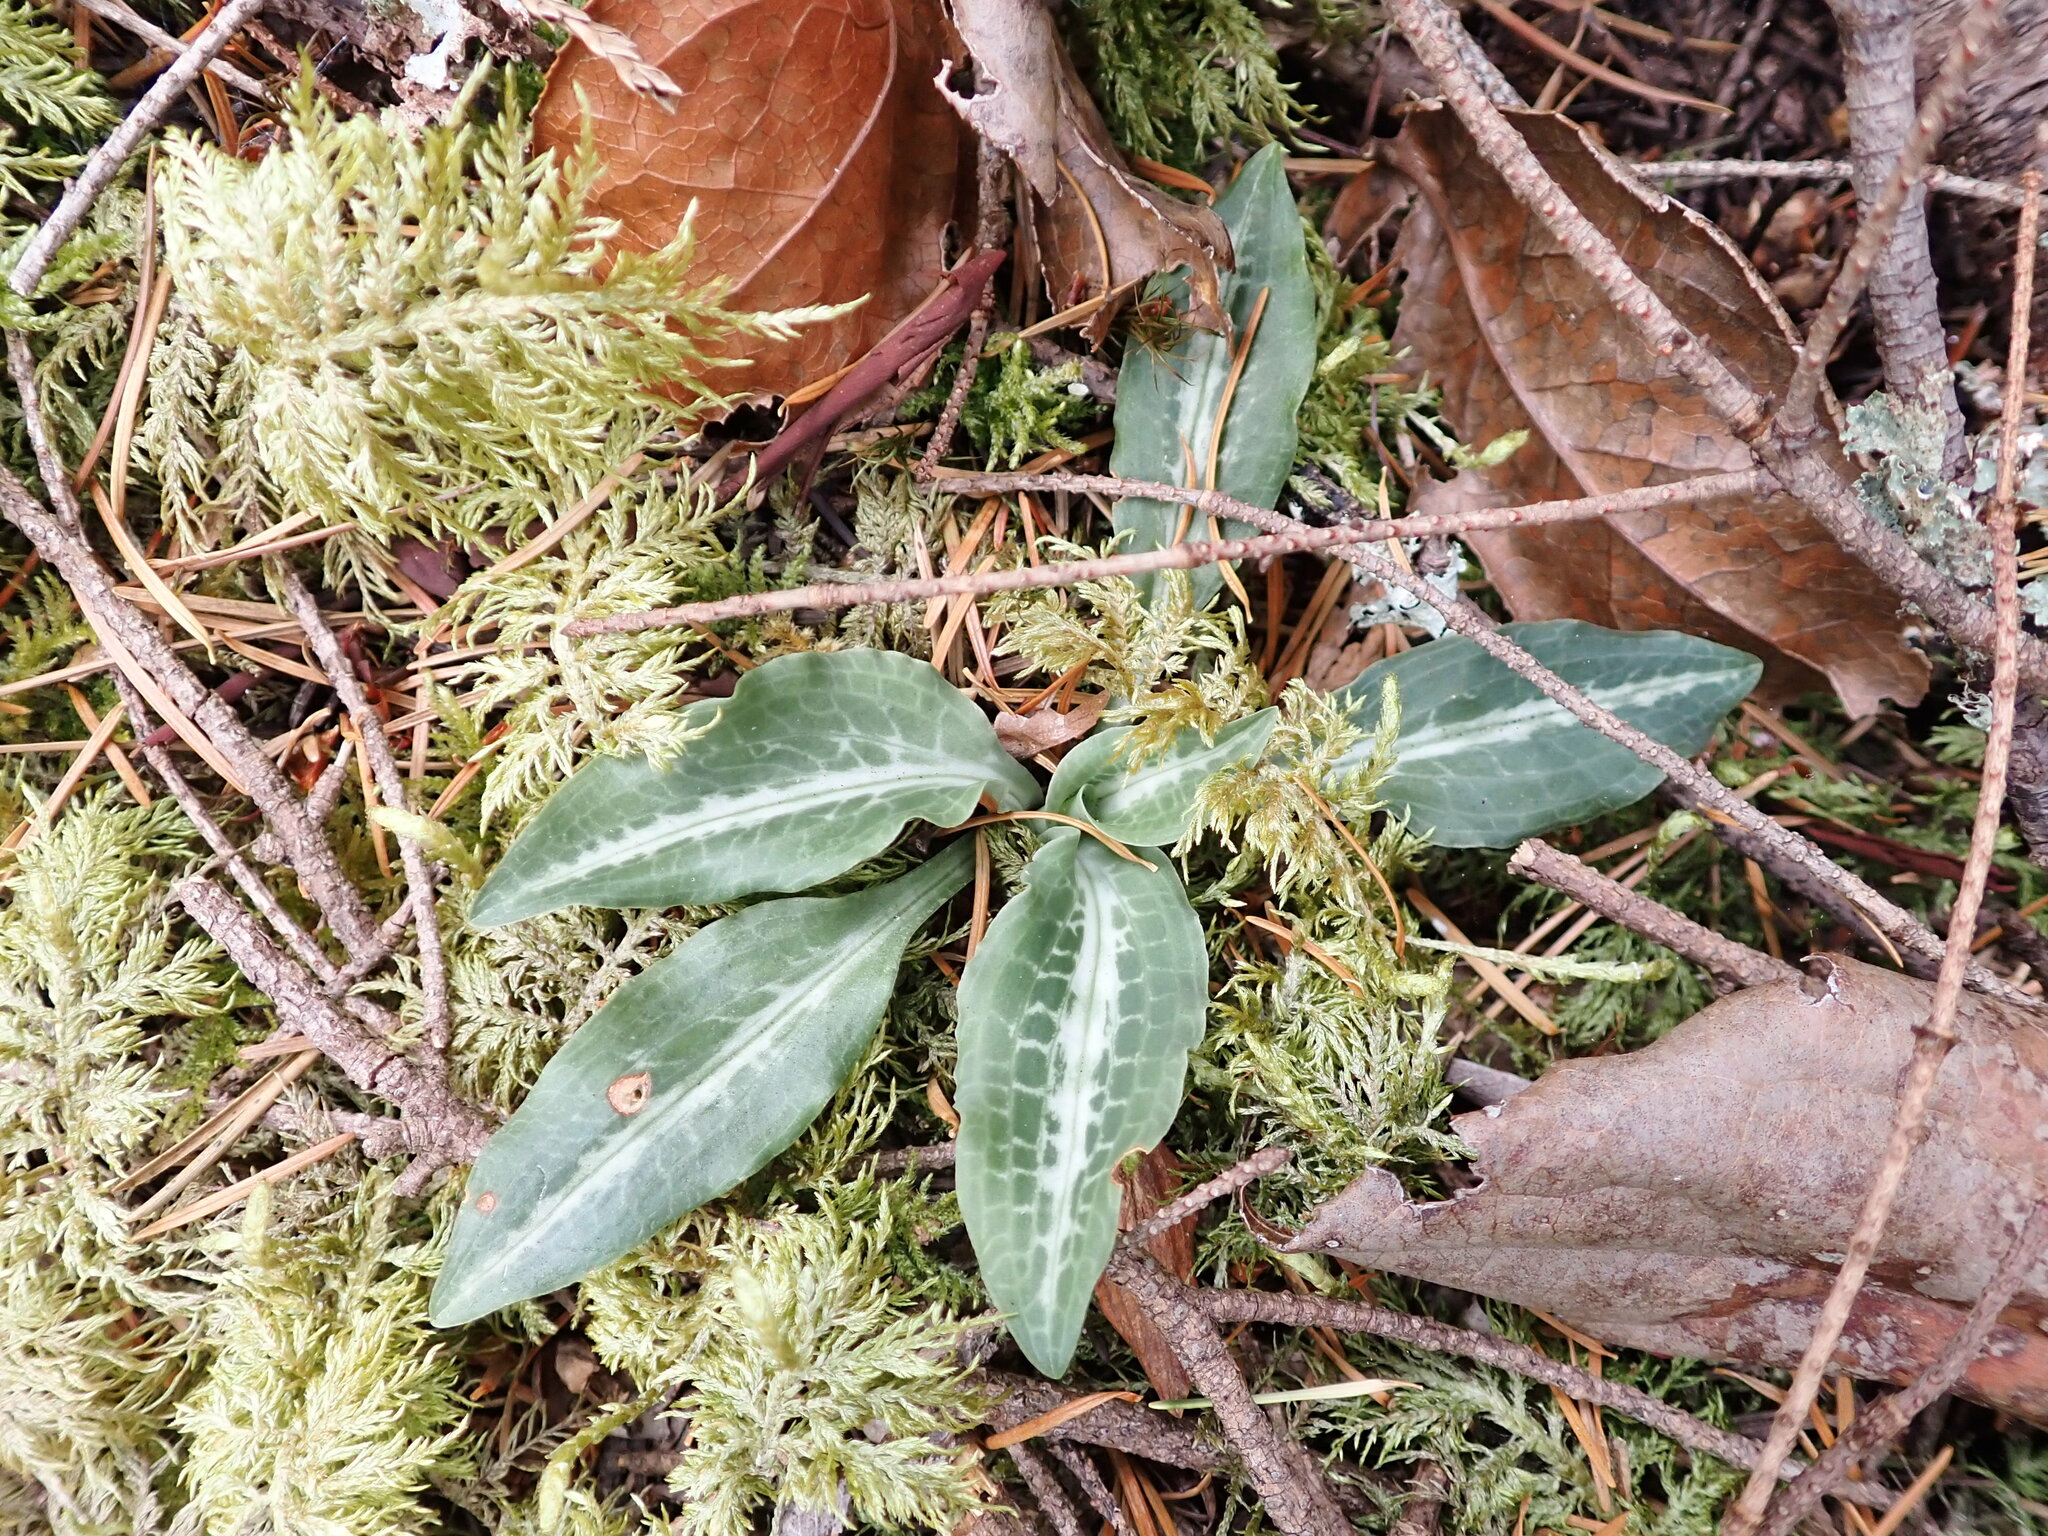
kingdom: Plantae
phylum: Tracheophyta
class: Liliopsida
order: Asparagales
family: Orchidaceae
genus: Goodyera
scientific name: Goodyera oblongifolia
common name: Giant rattlesnake-plantain
